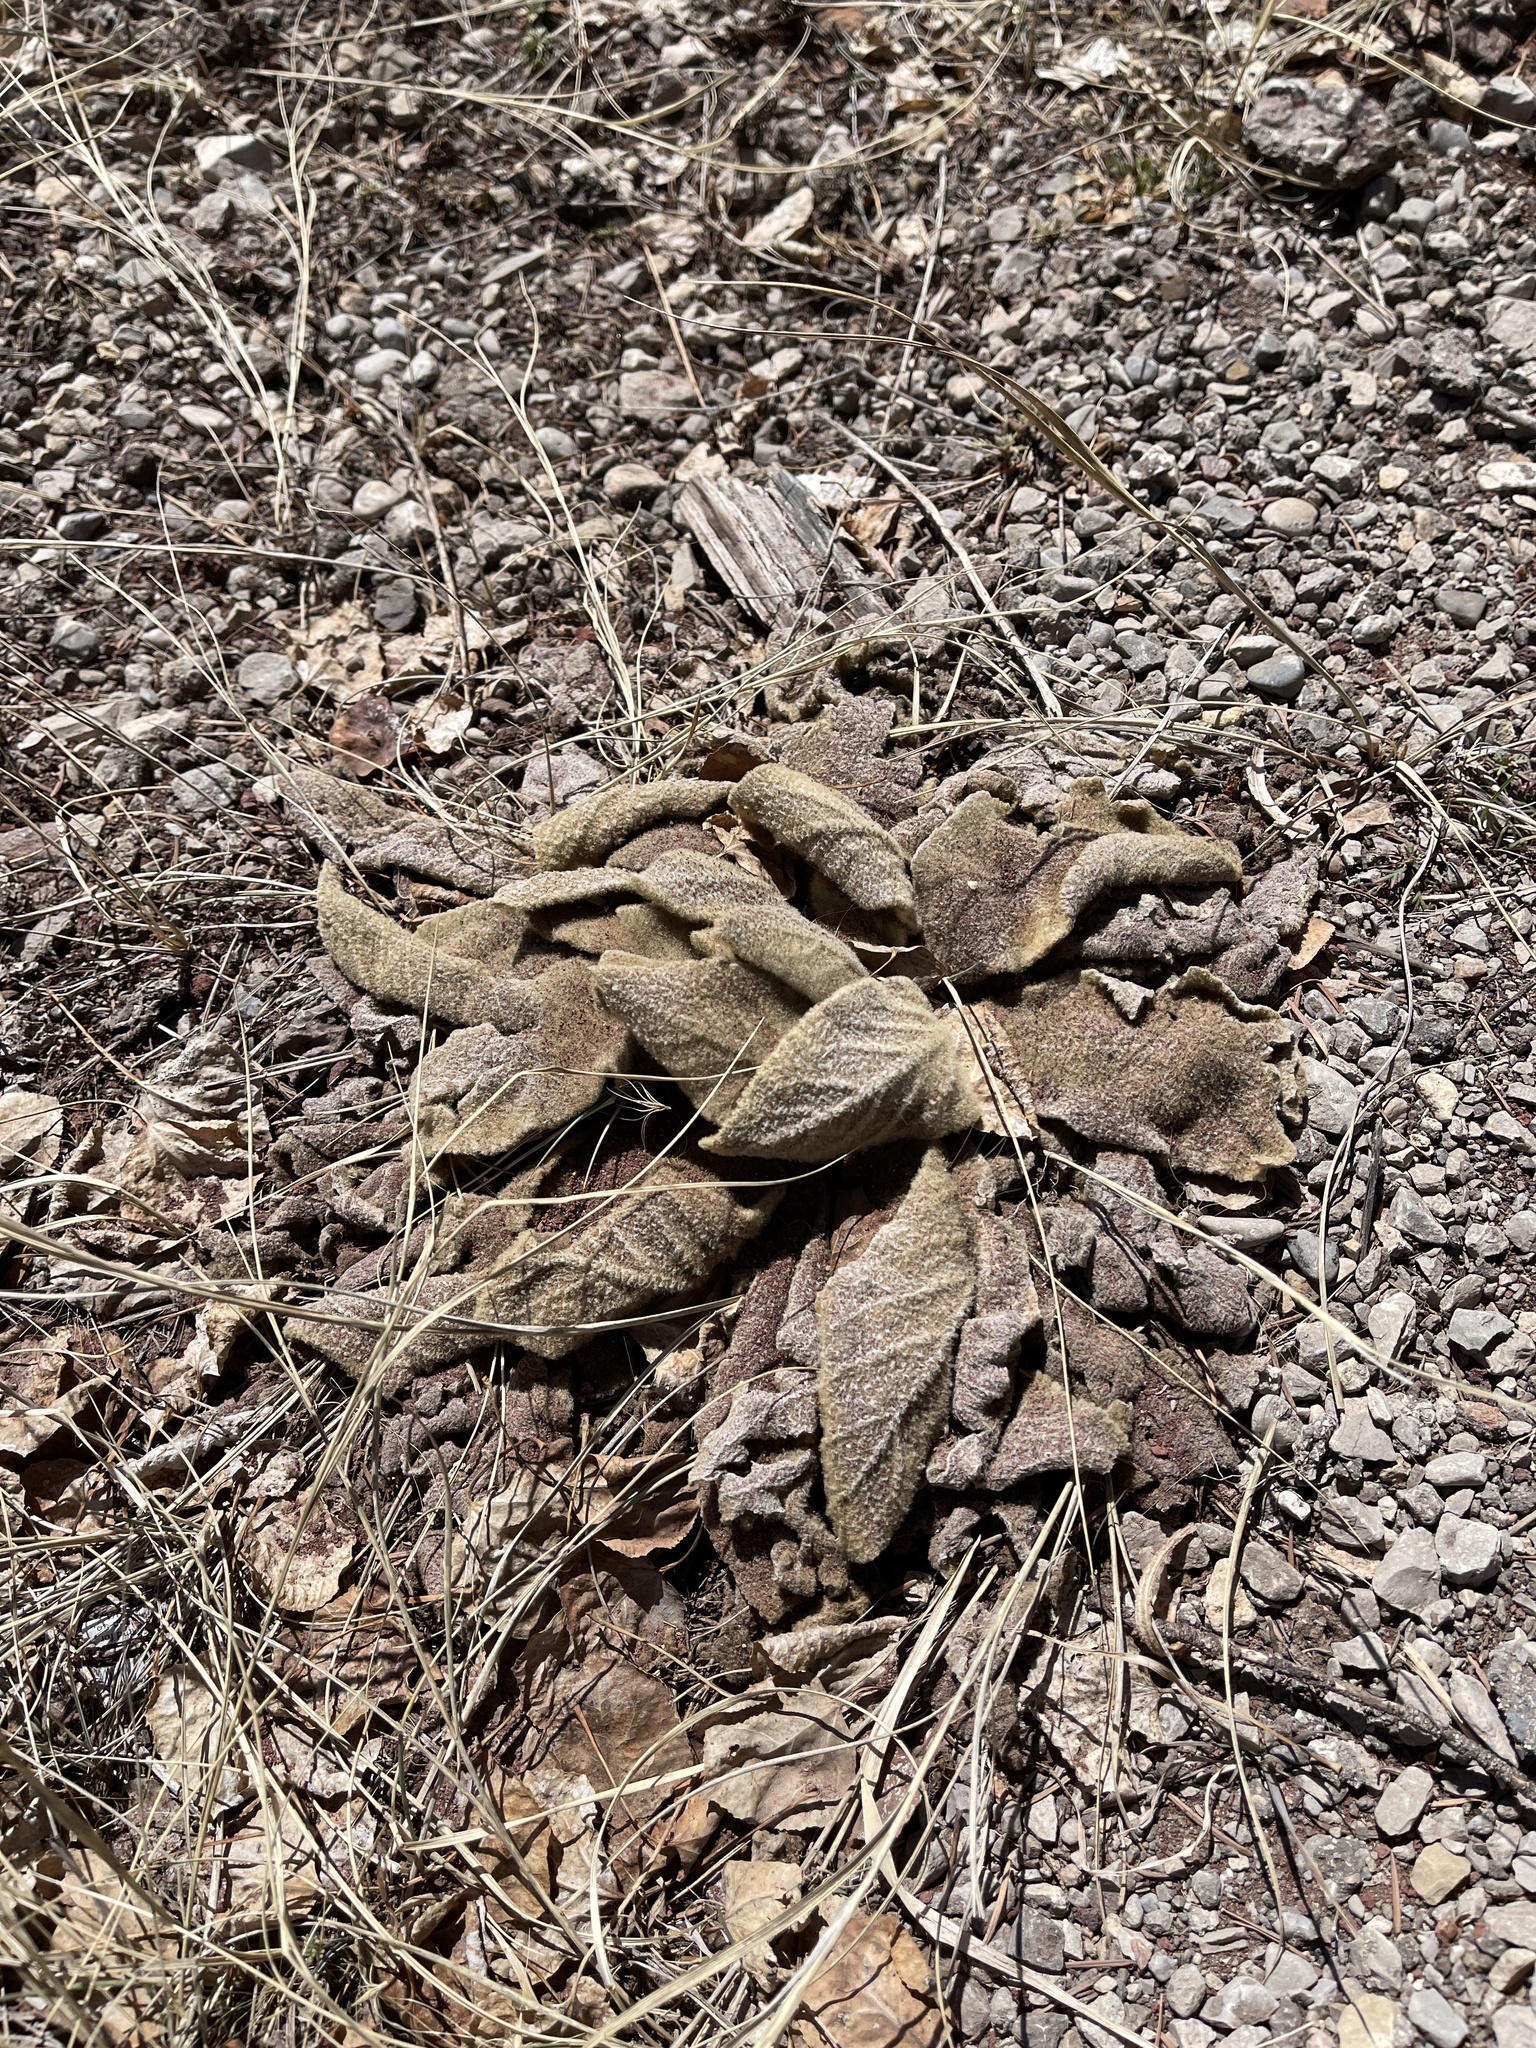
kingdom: Plantae
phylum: Tracheophyta
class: Magnoliopsida
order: Lamiales
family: Scrophulariaceae
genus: Verbascum
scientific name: Verbascum thapsus
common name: Common mullein
